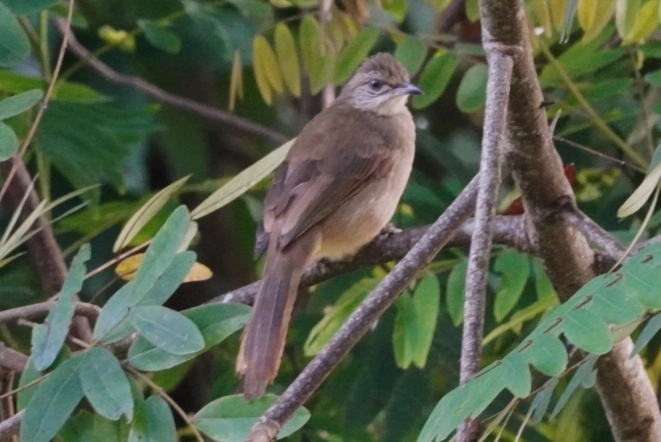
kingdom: Animalia
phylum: Chordata
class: Aves
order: Passeriformes
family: Pycnonotidae
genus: Pycnonotus
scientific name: Pycnonotus blanfordi
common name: Streak-eared bulbul
